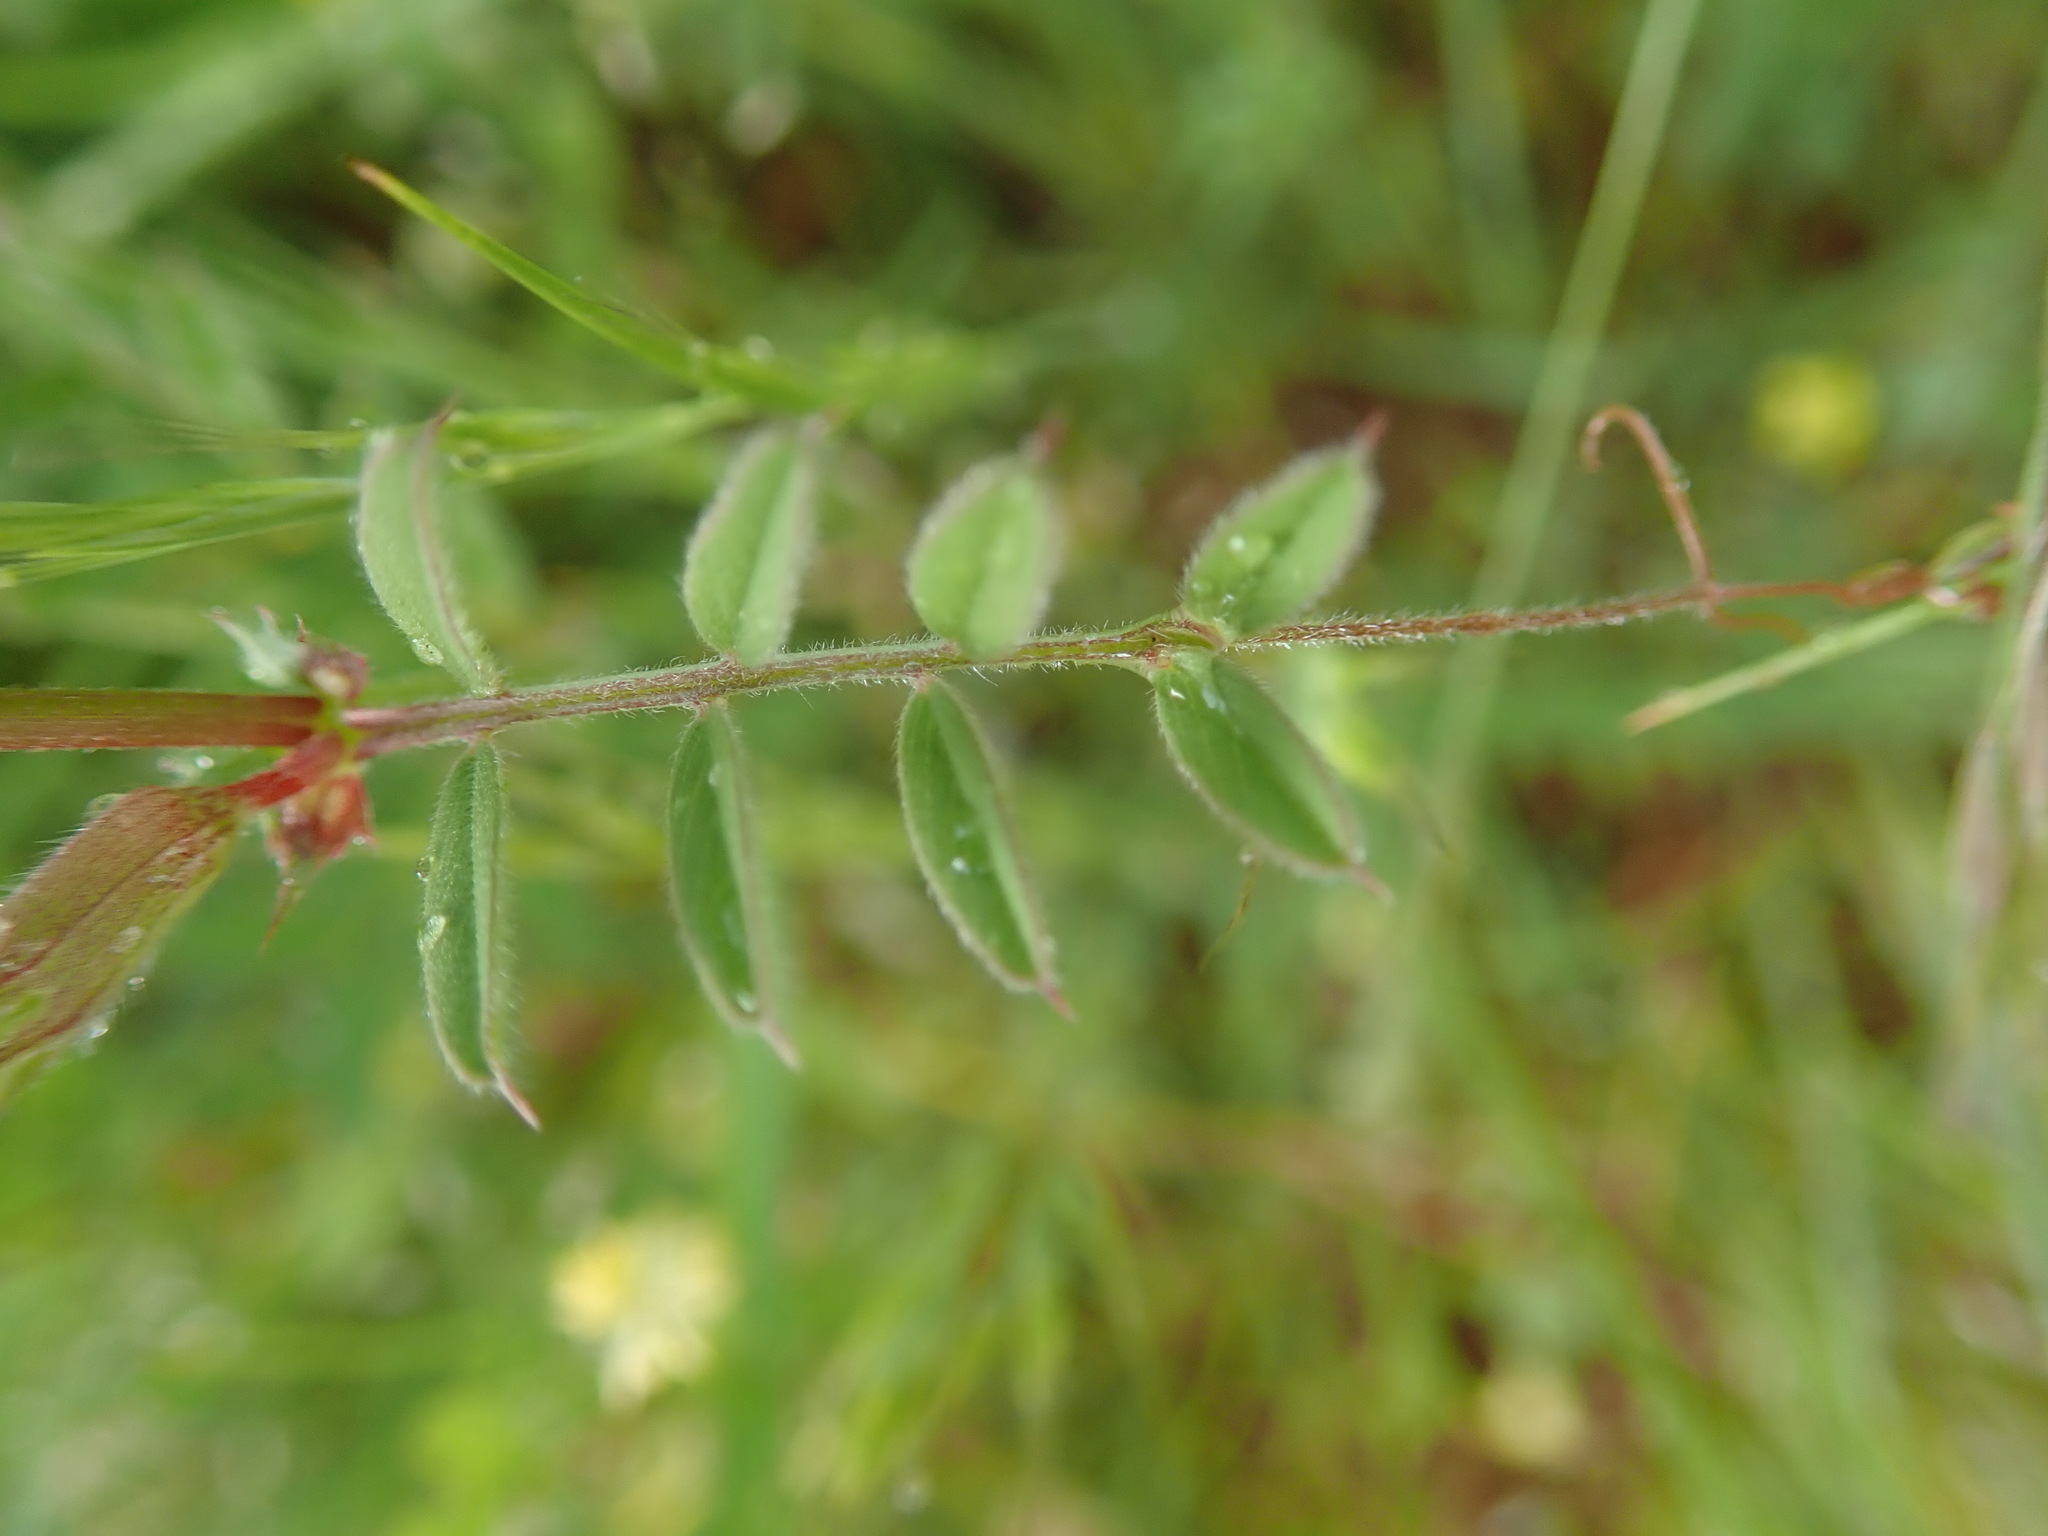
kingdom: Plantae
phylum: Tracheophyta
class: Magnoliopsida
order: Fabales
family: Fabaceae
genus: Vicia
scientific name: Vicia sativa
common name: Garden vetch
